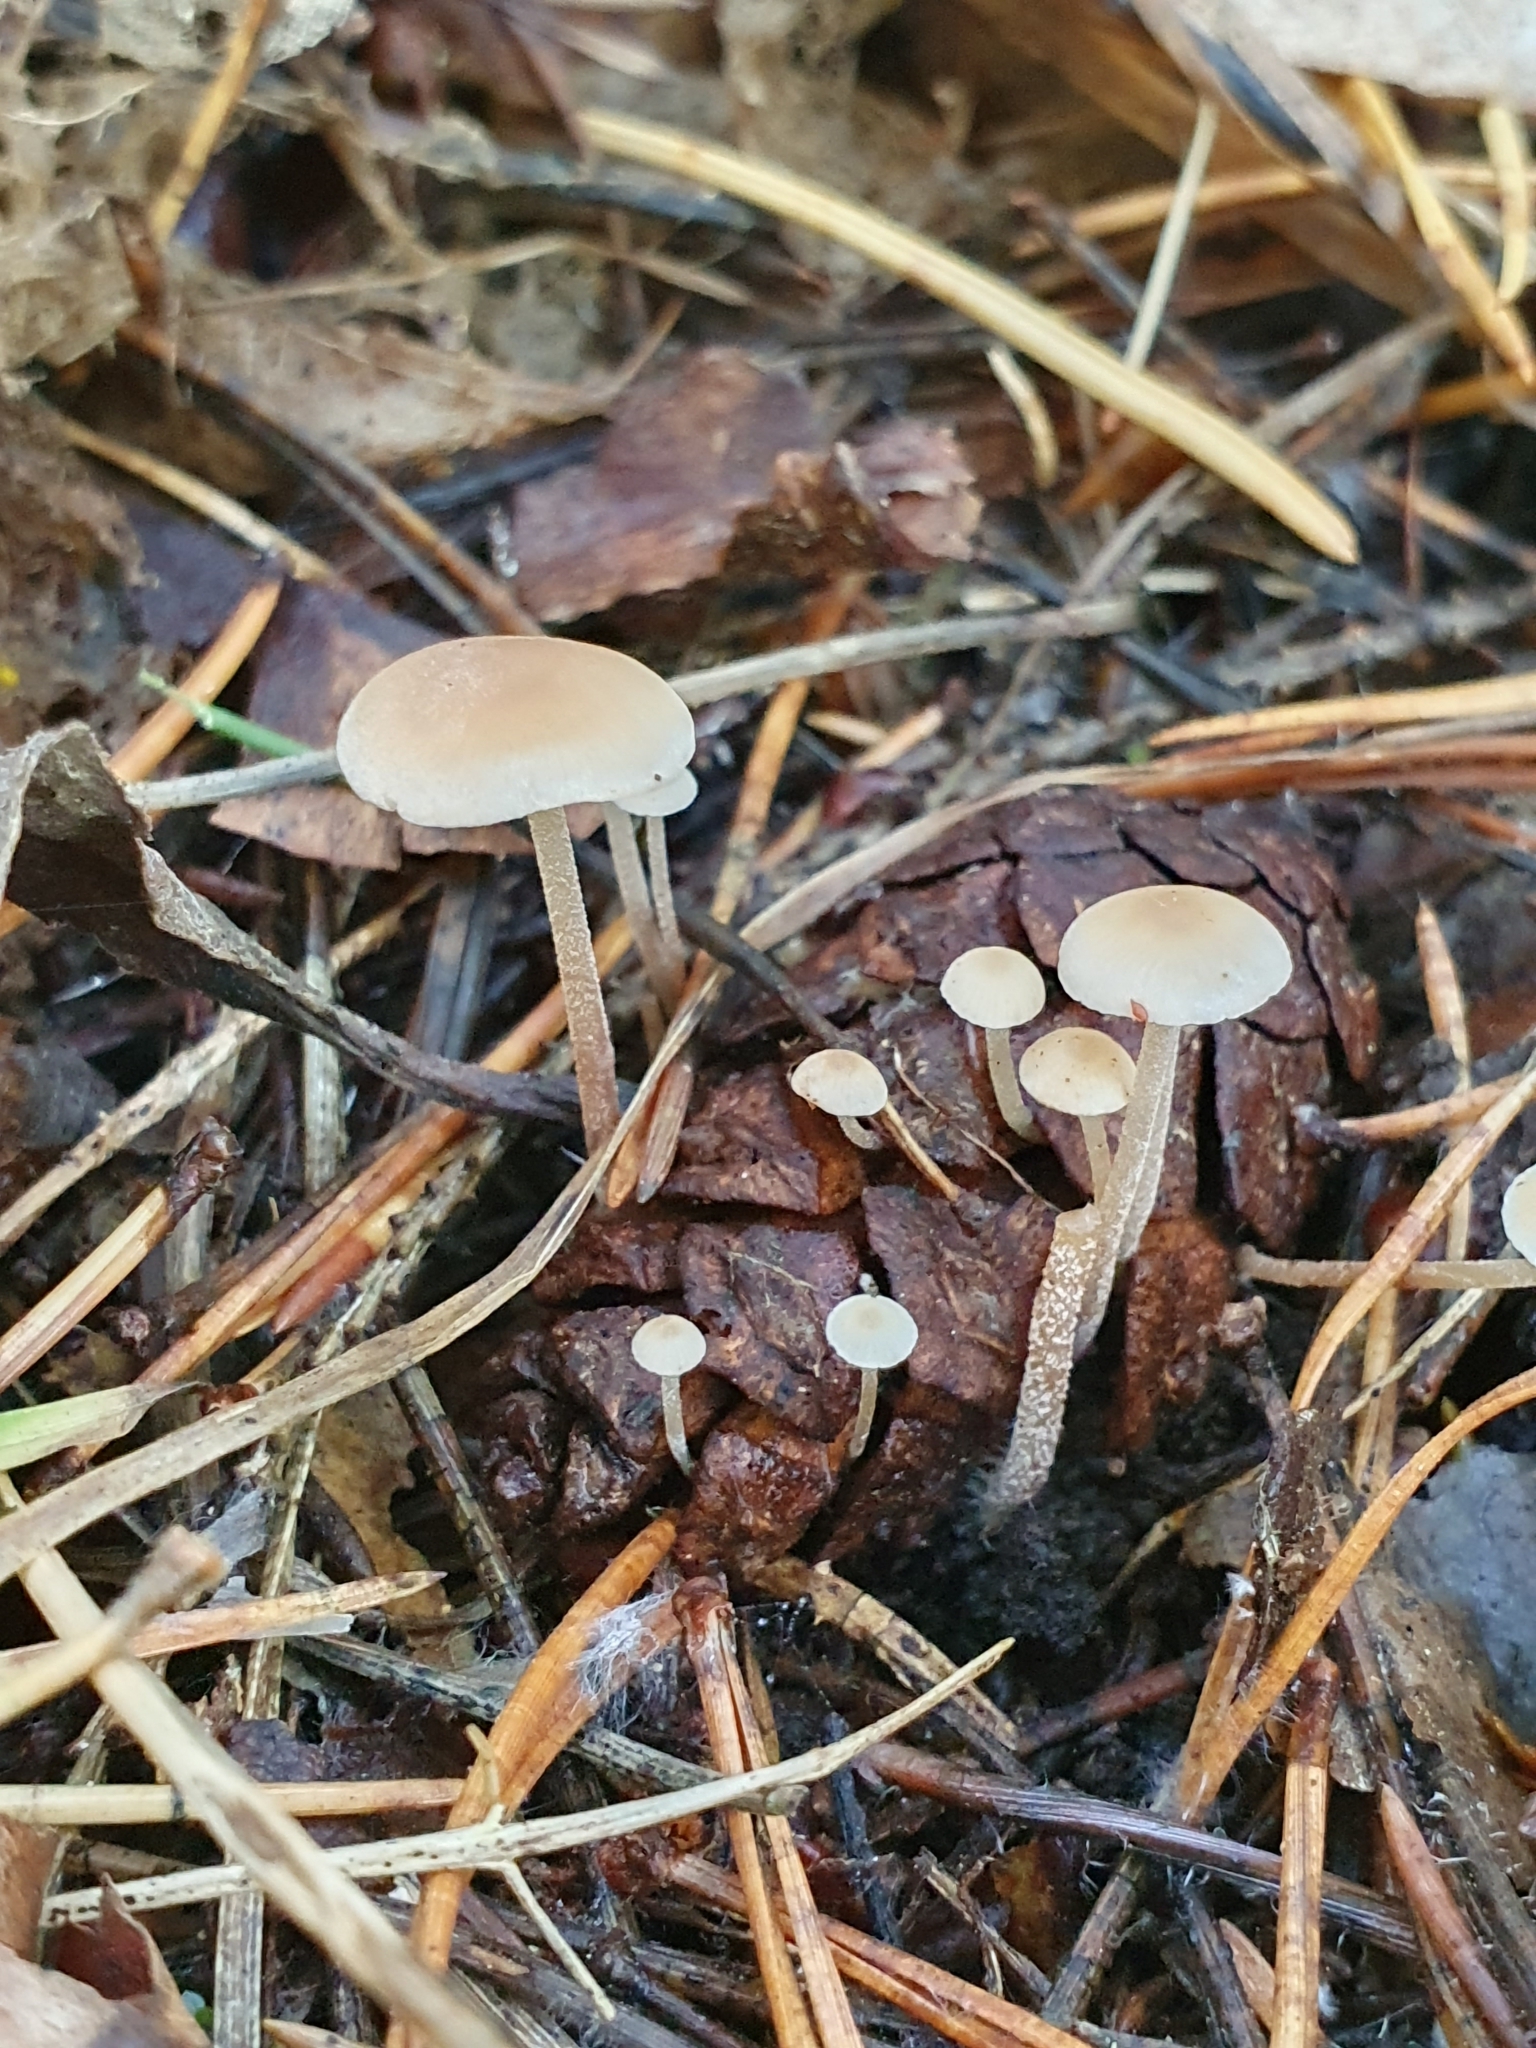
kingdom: Fungi
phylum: Basidiomycota
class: Agaricomycetes
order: Agaricales
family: Marasmiaceae
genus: Baeospora
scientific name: Baeospora myosura
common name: Conifercone cap
